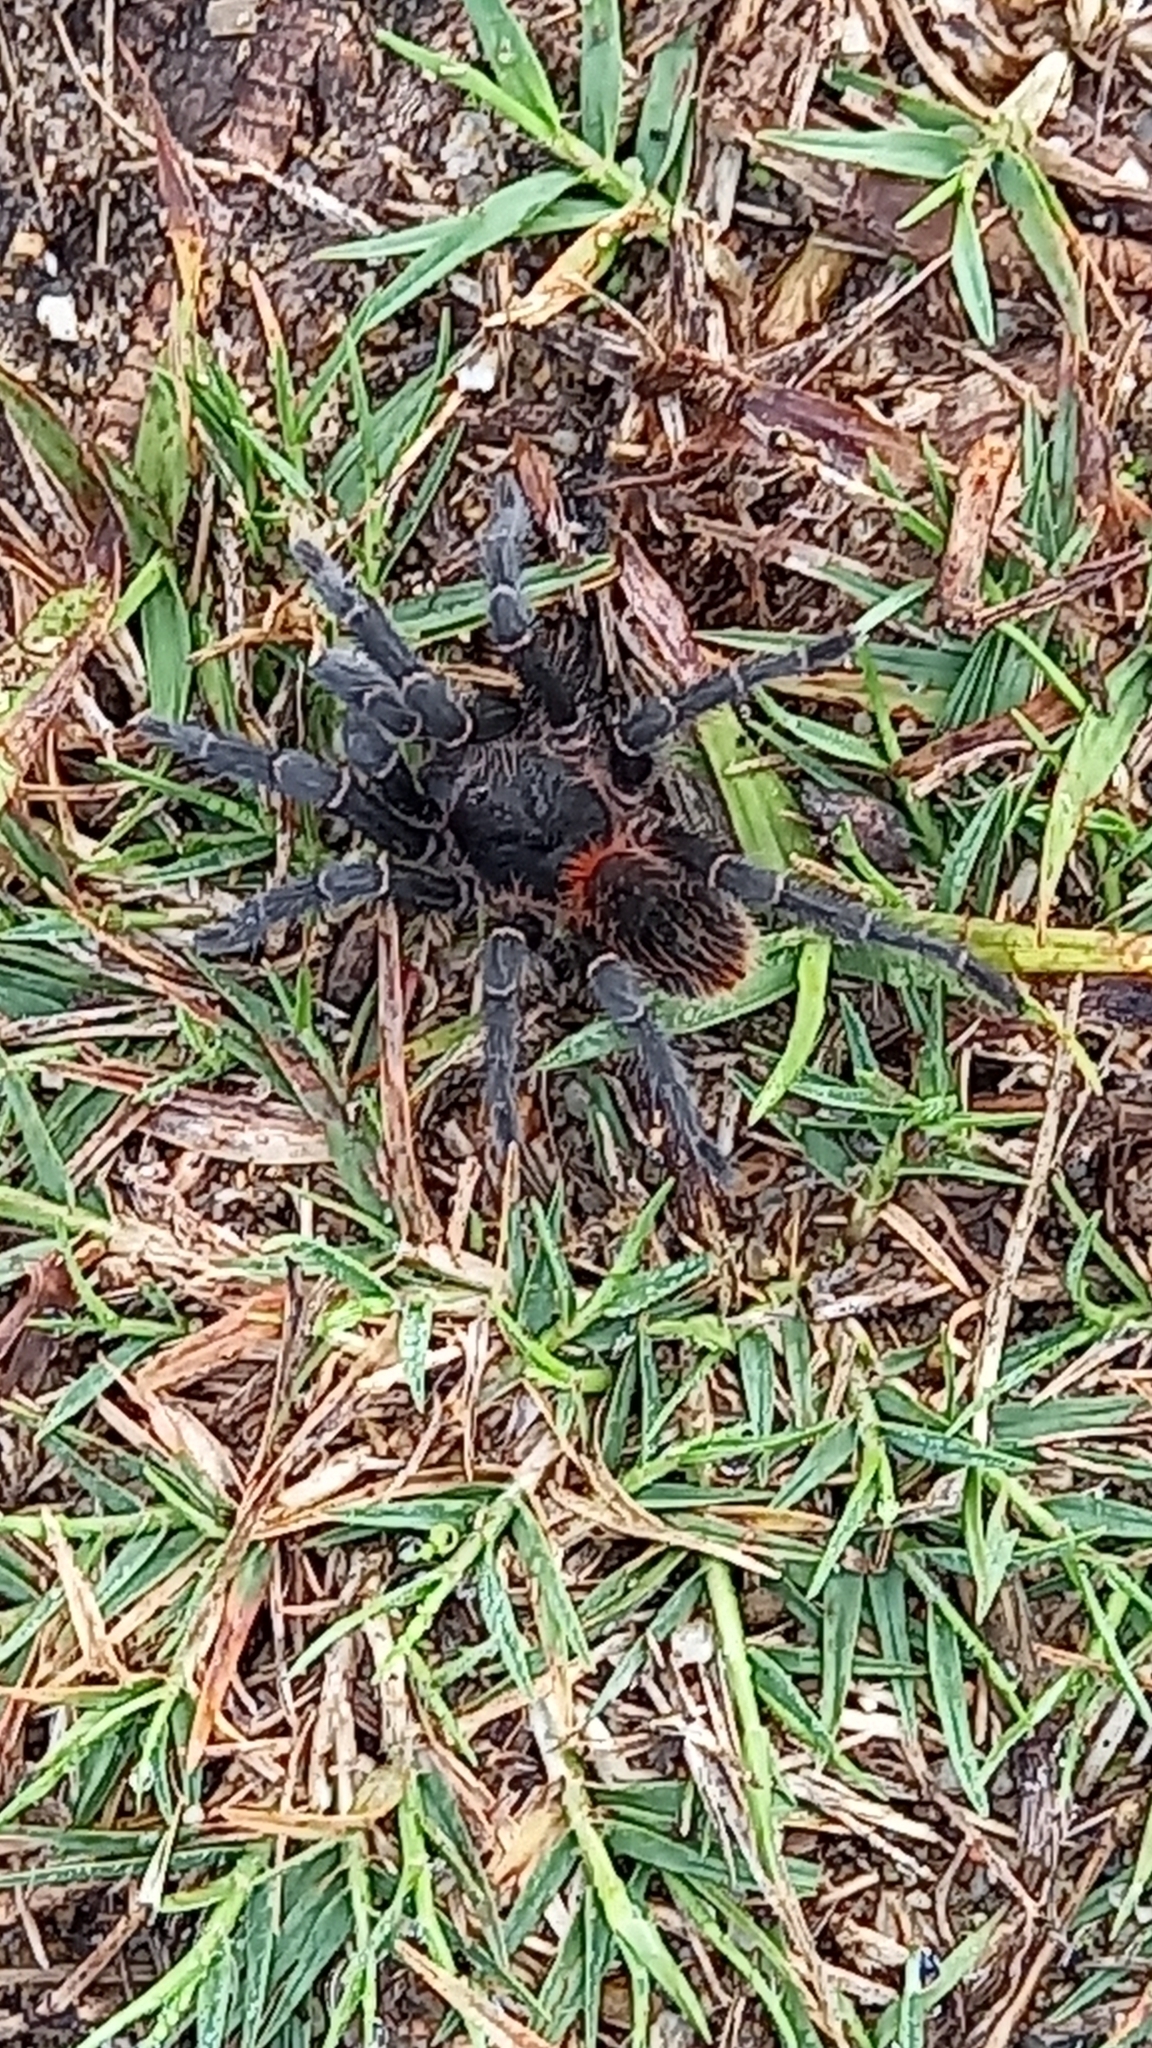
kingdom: Animalia
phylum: Arthropoda
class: Arachnida
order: Araneae
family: Theraphosidae
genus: Homoeomma
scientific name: Homoeomma uruguayense
